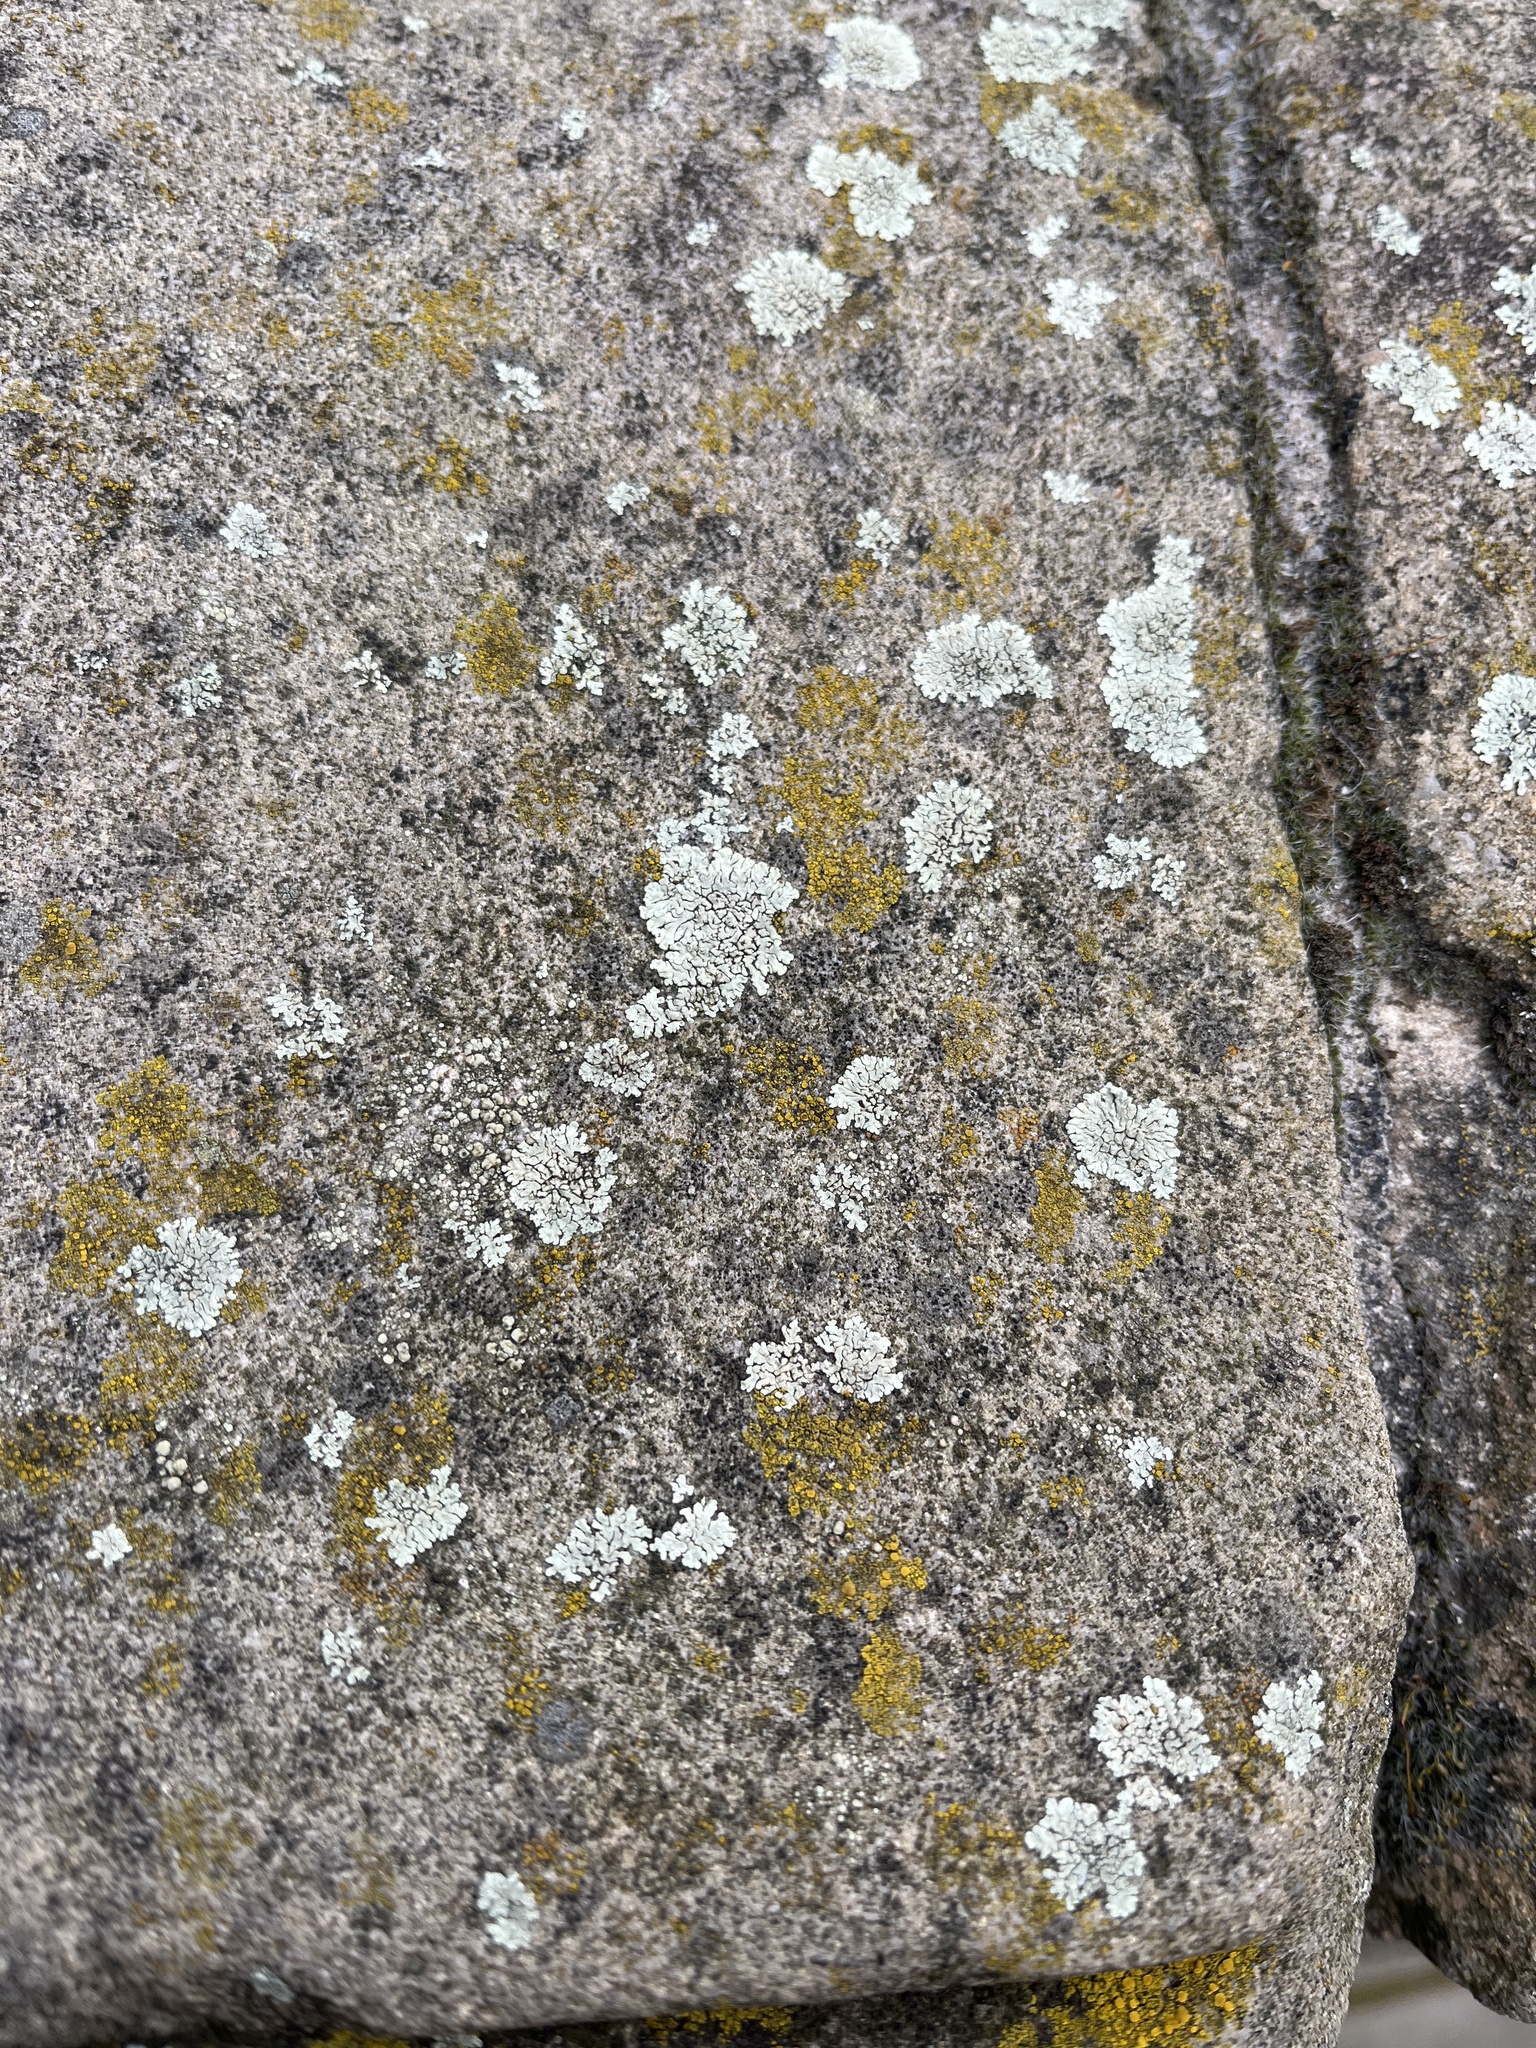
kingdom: Fungi
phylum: Ascomycota
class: Lecanoromycetes
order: Lecanorales
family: Lecanoraceae
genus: Protoparmeliopsis
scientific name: Protoparmeliopsis muralis
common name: Stonewall rim lichen
